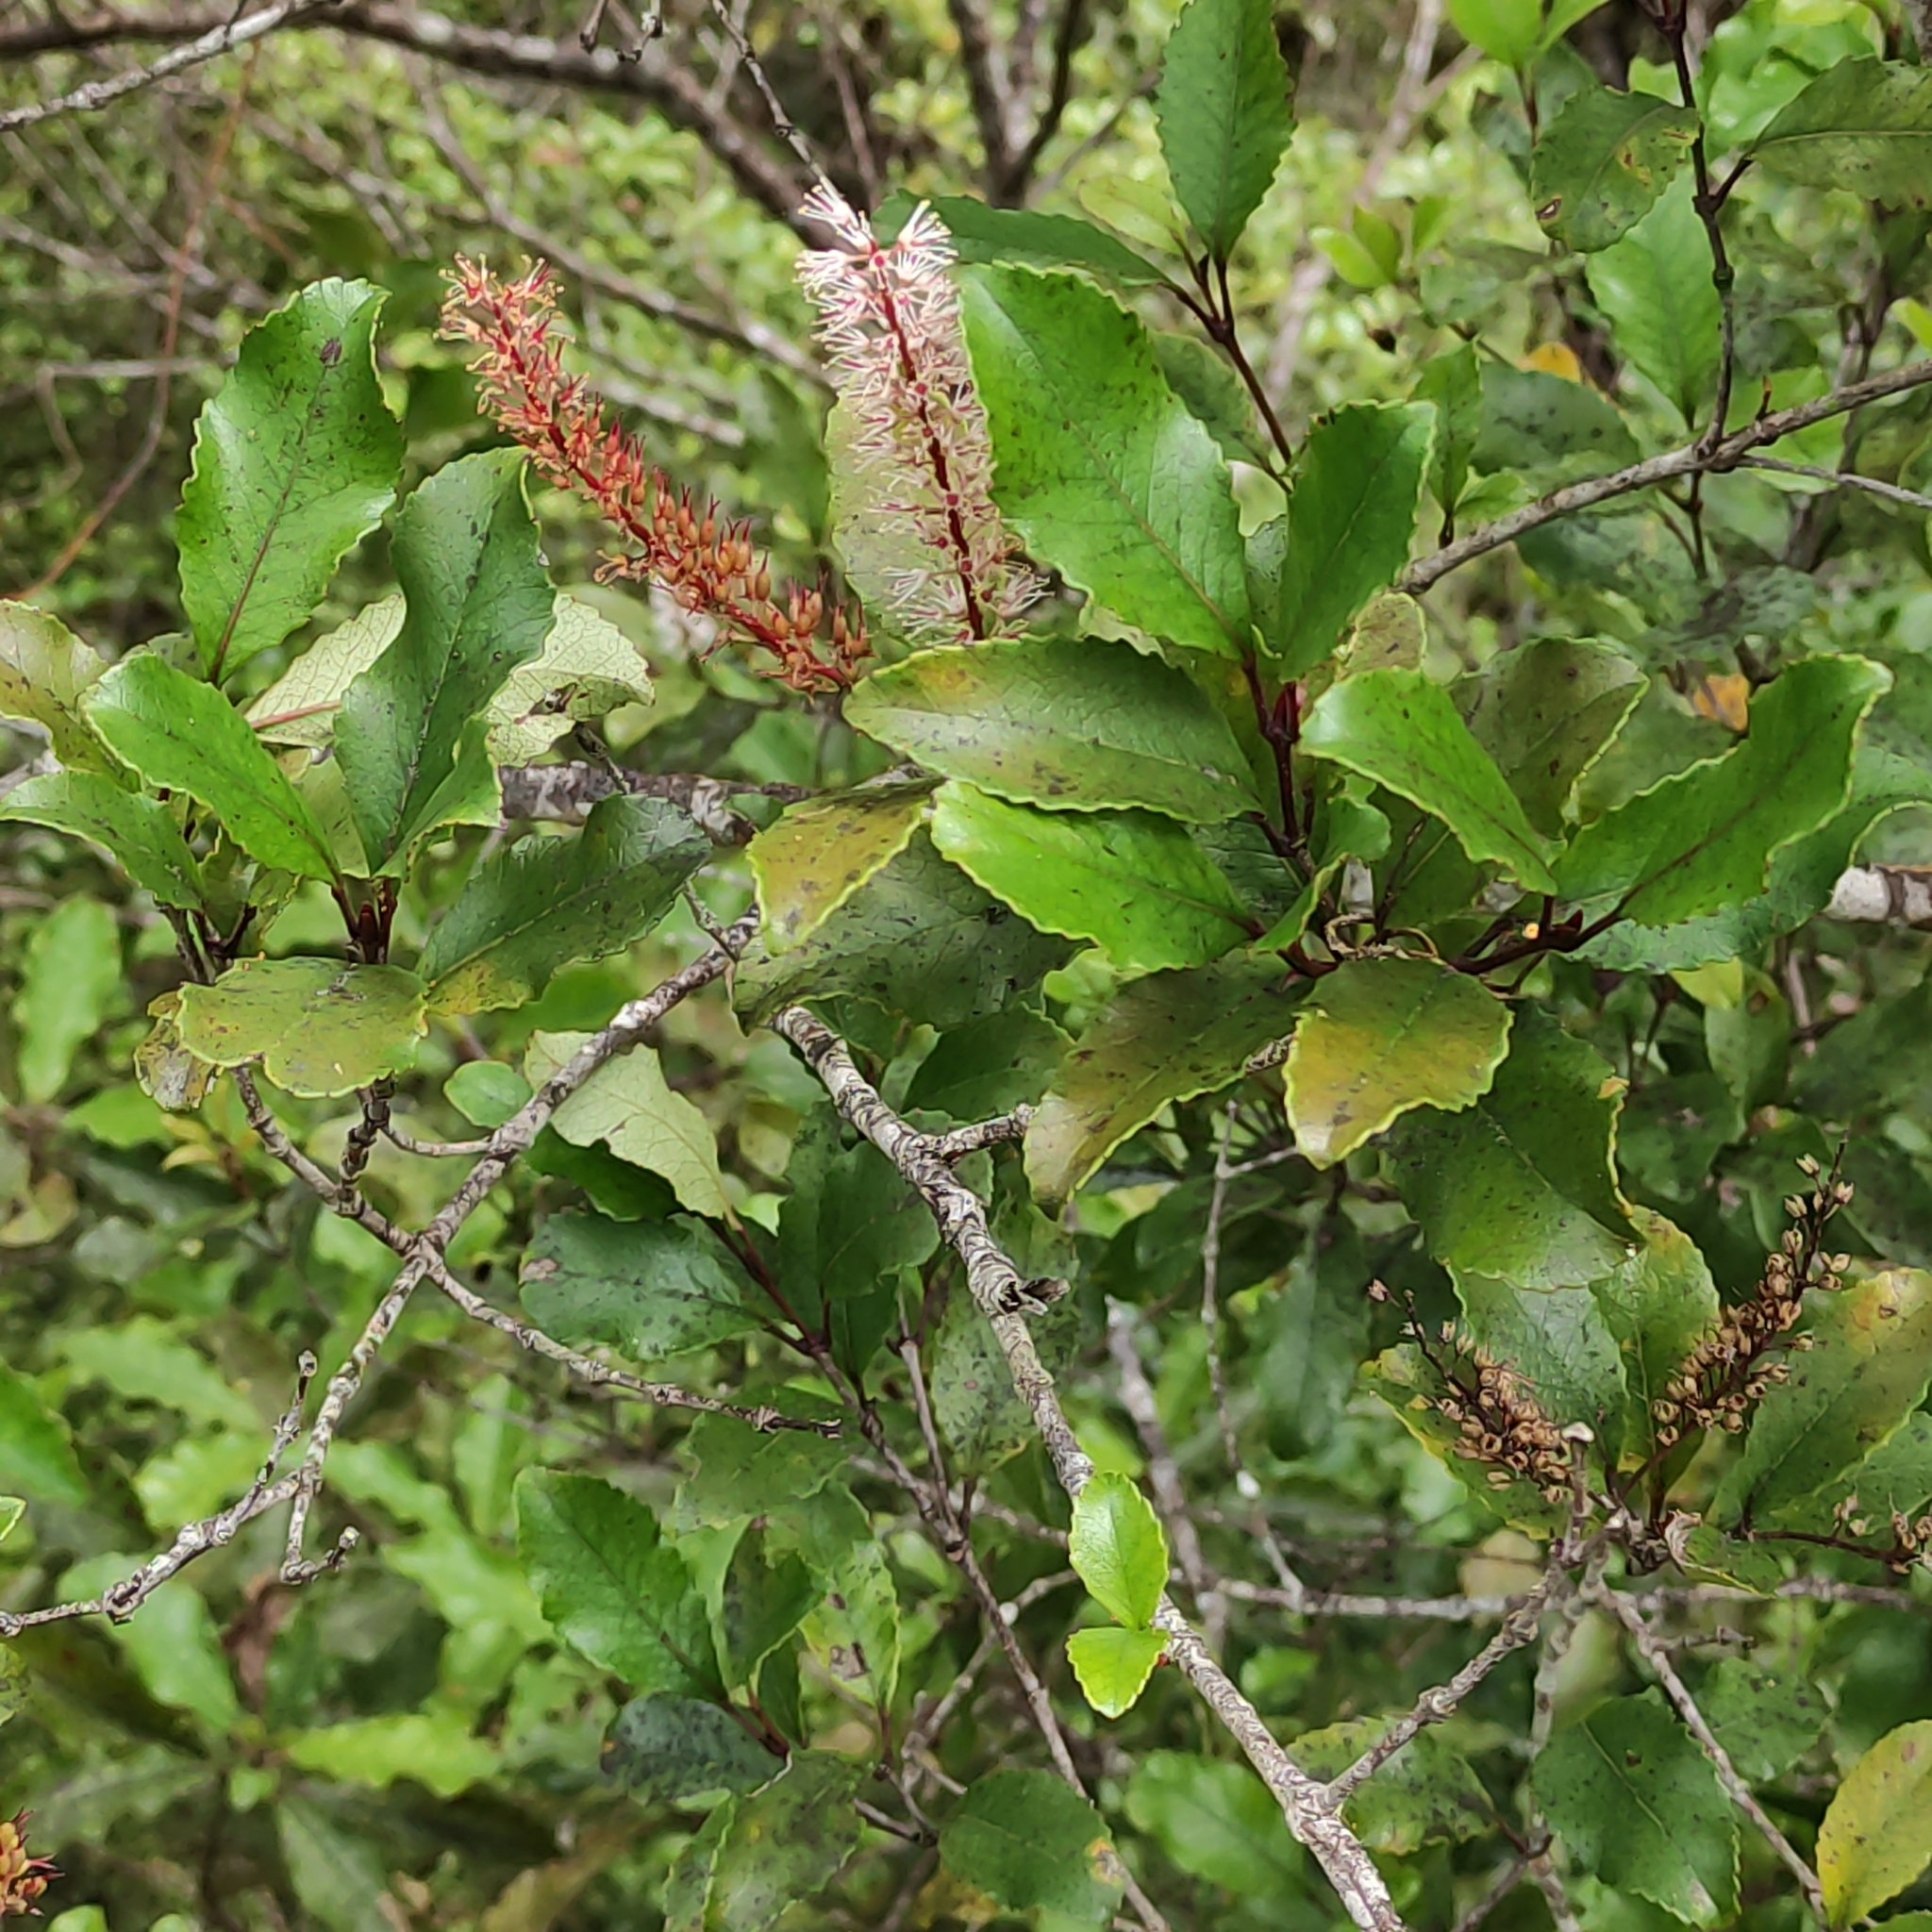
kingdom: Plantae
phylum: Tracheophyta
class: Magnoliopsida
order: Oxalidales
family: Cunoniaceae
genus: Pterophylla
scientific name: Pterophylla racemosa
